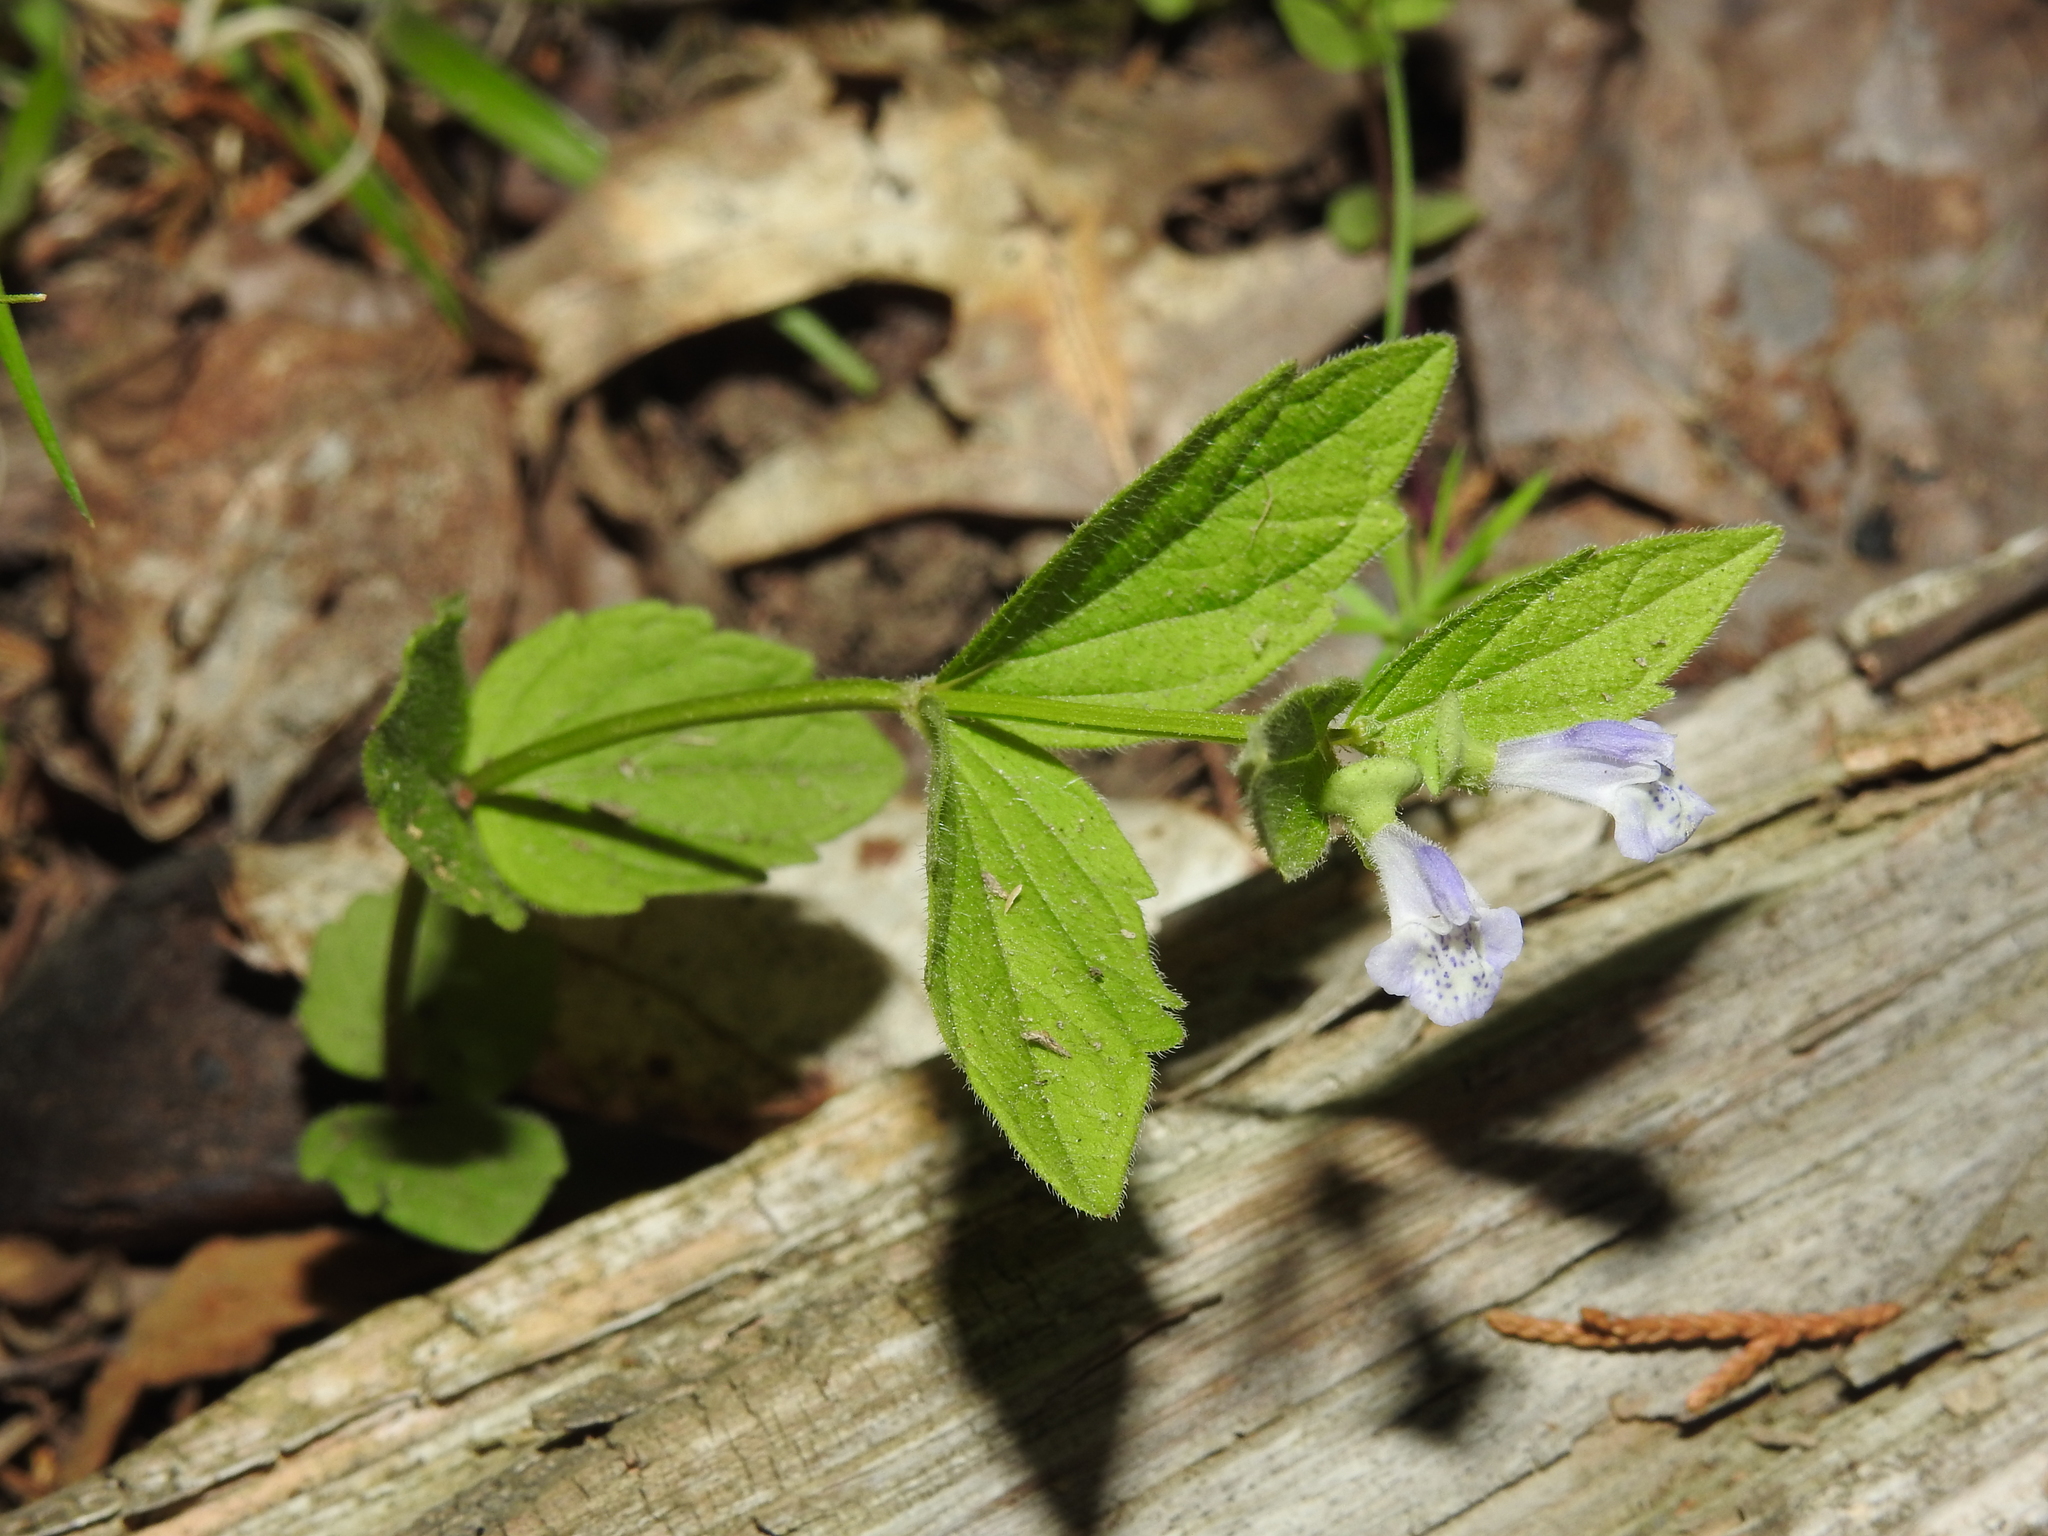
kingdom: Plantae
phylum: Tracheophyta
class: Magnoliopsida
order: Lamiales
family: Lamiaceae
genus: Scutellaria
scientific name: Scutellaria nervosa
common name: Bottomland skullcap
